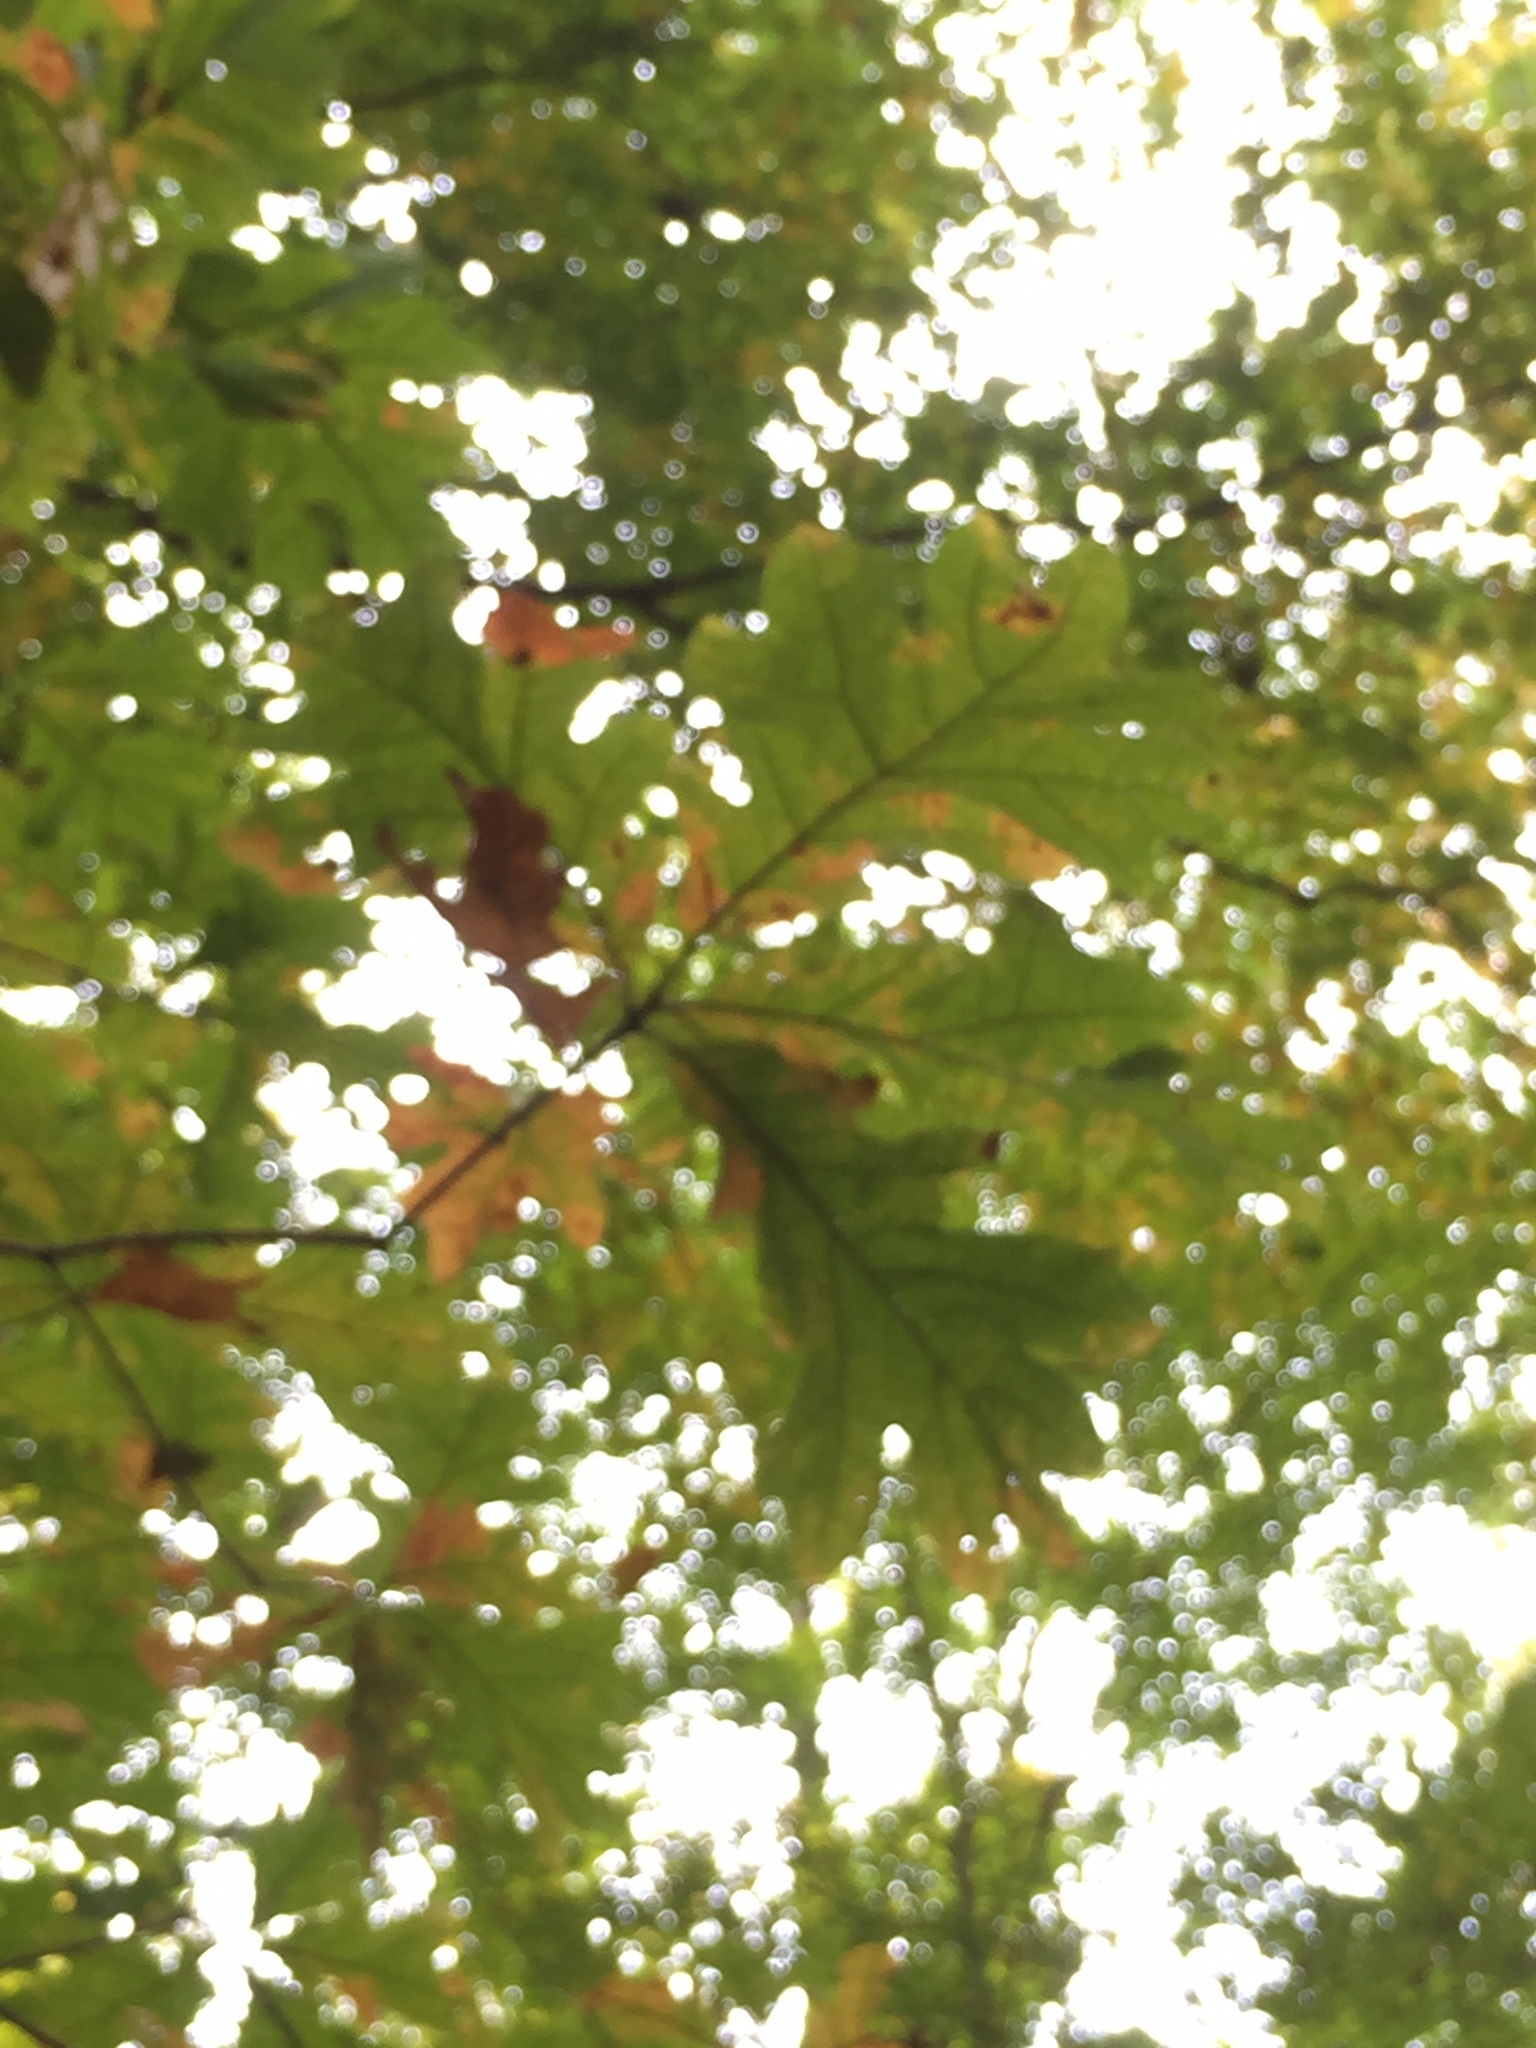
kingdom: Plantae
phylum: Tracheophyta
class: Magnoliopsida
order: Fagales
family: Fagaceae
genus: Quercus
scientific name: Quercus alba
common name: White oak
